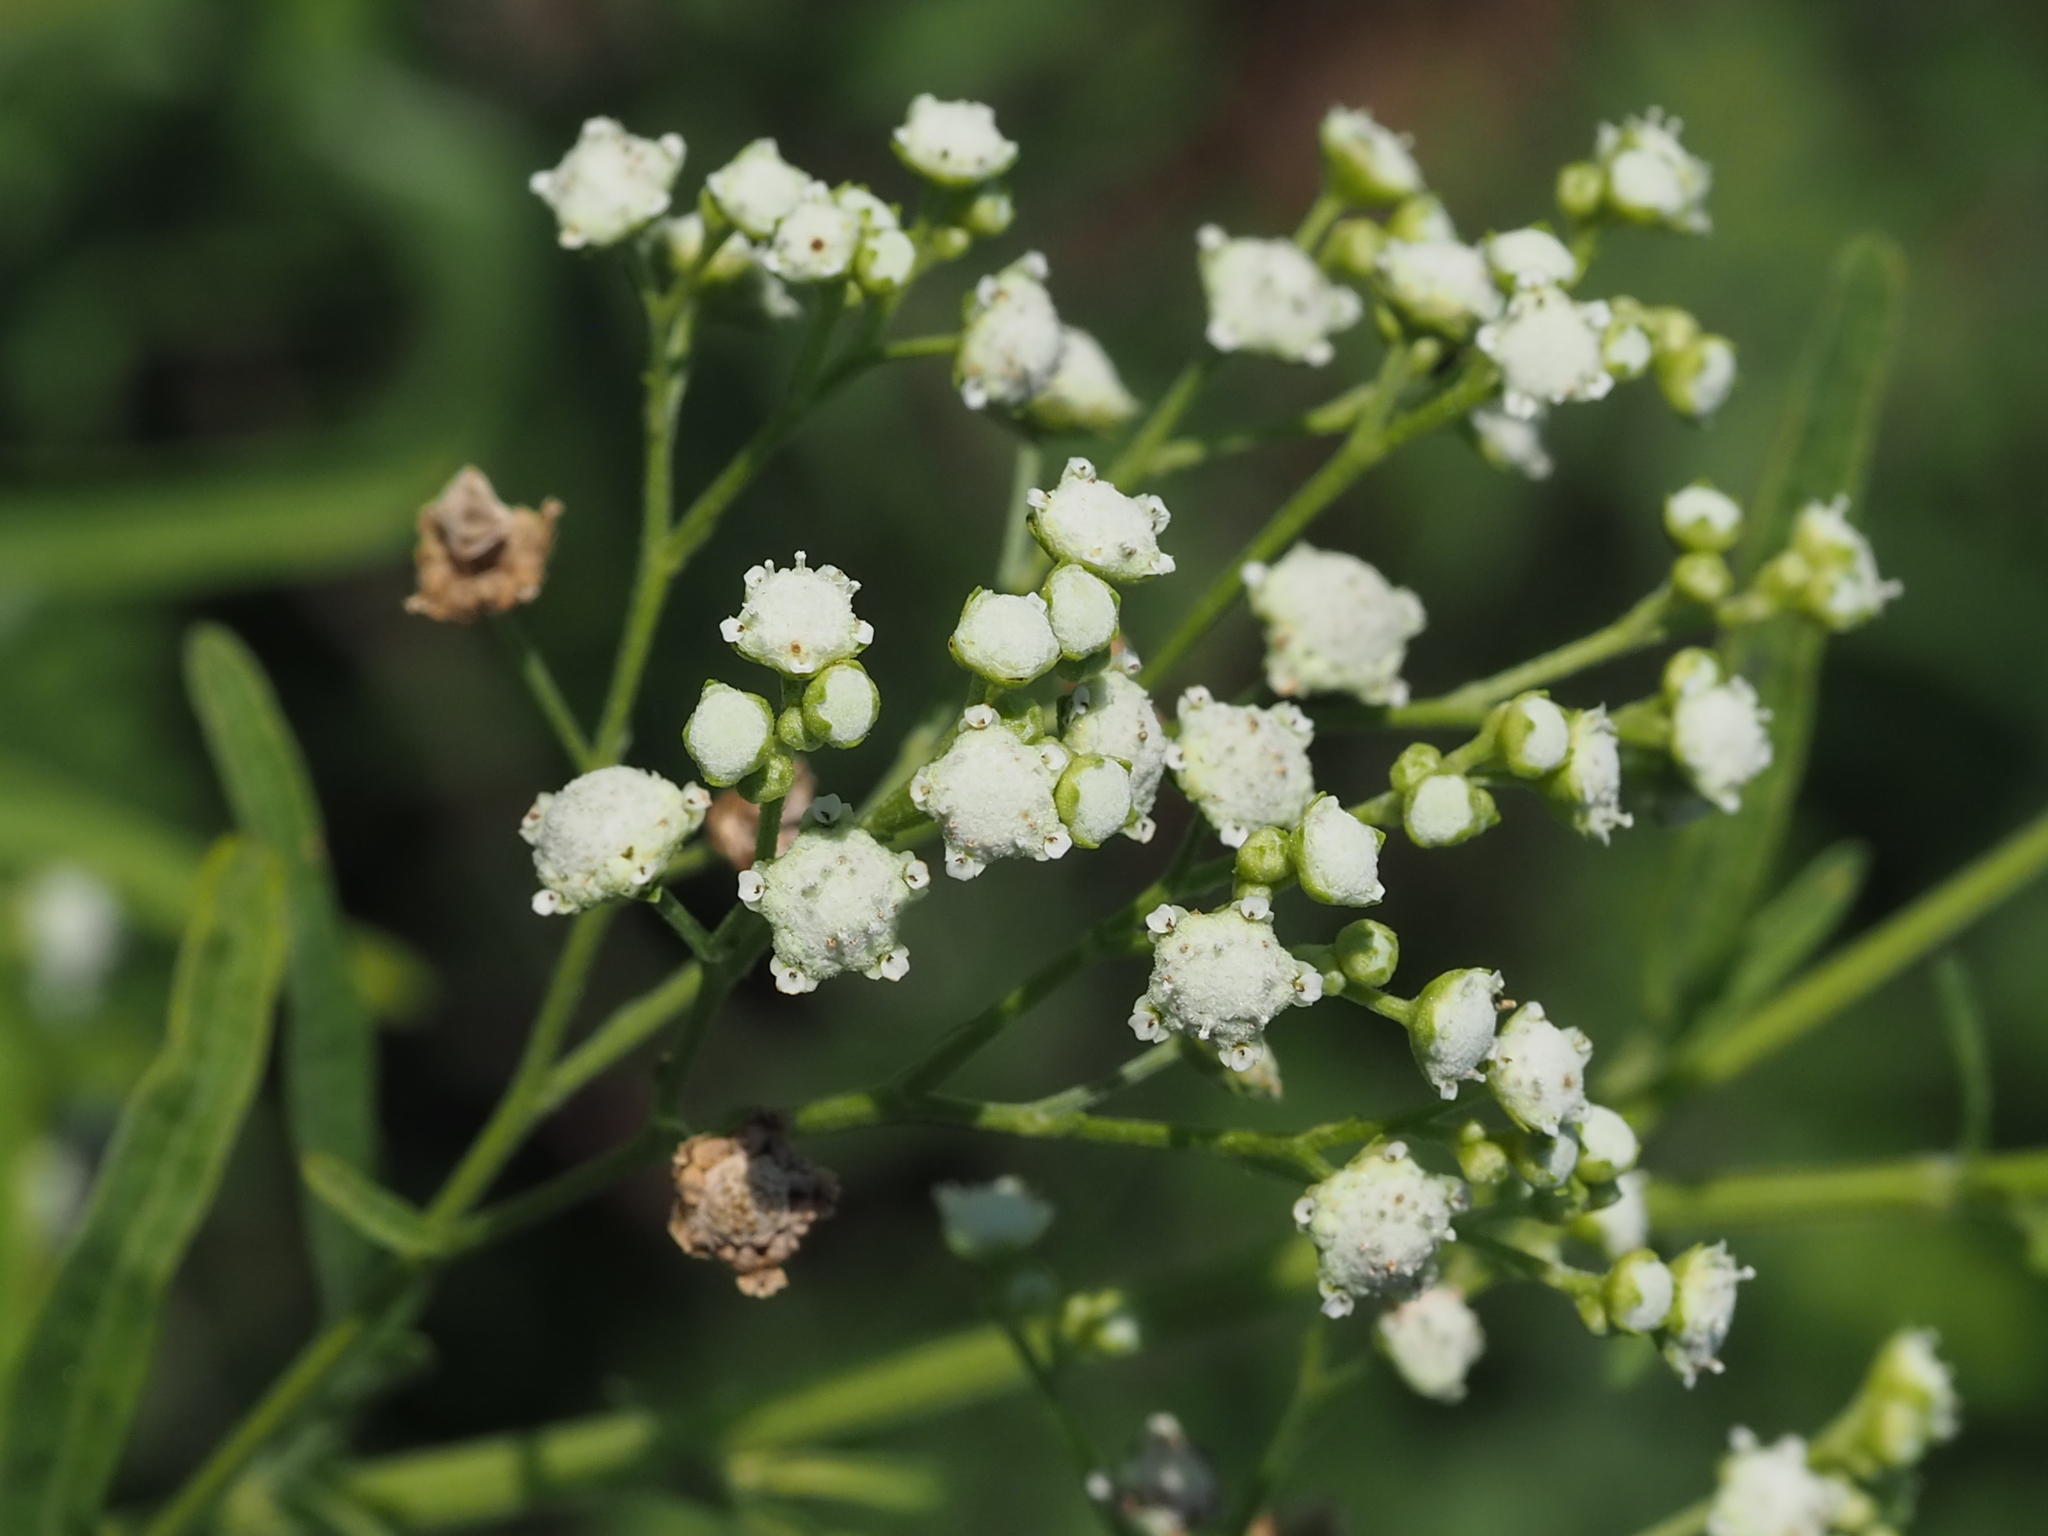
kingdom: Plantae
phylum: Tracheophyta
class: Magnoliopsida
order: Asterales
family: Asteraceae
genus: Parthenium
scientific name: Parthenium hysterophorus
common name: Santa maria feverfew
